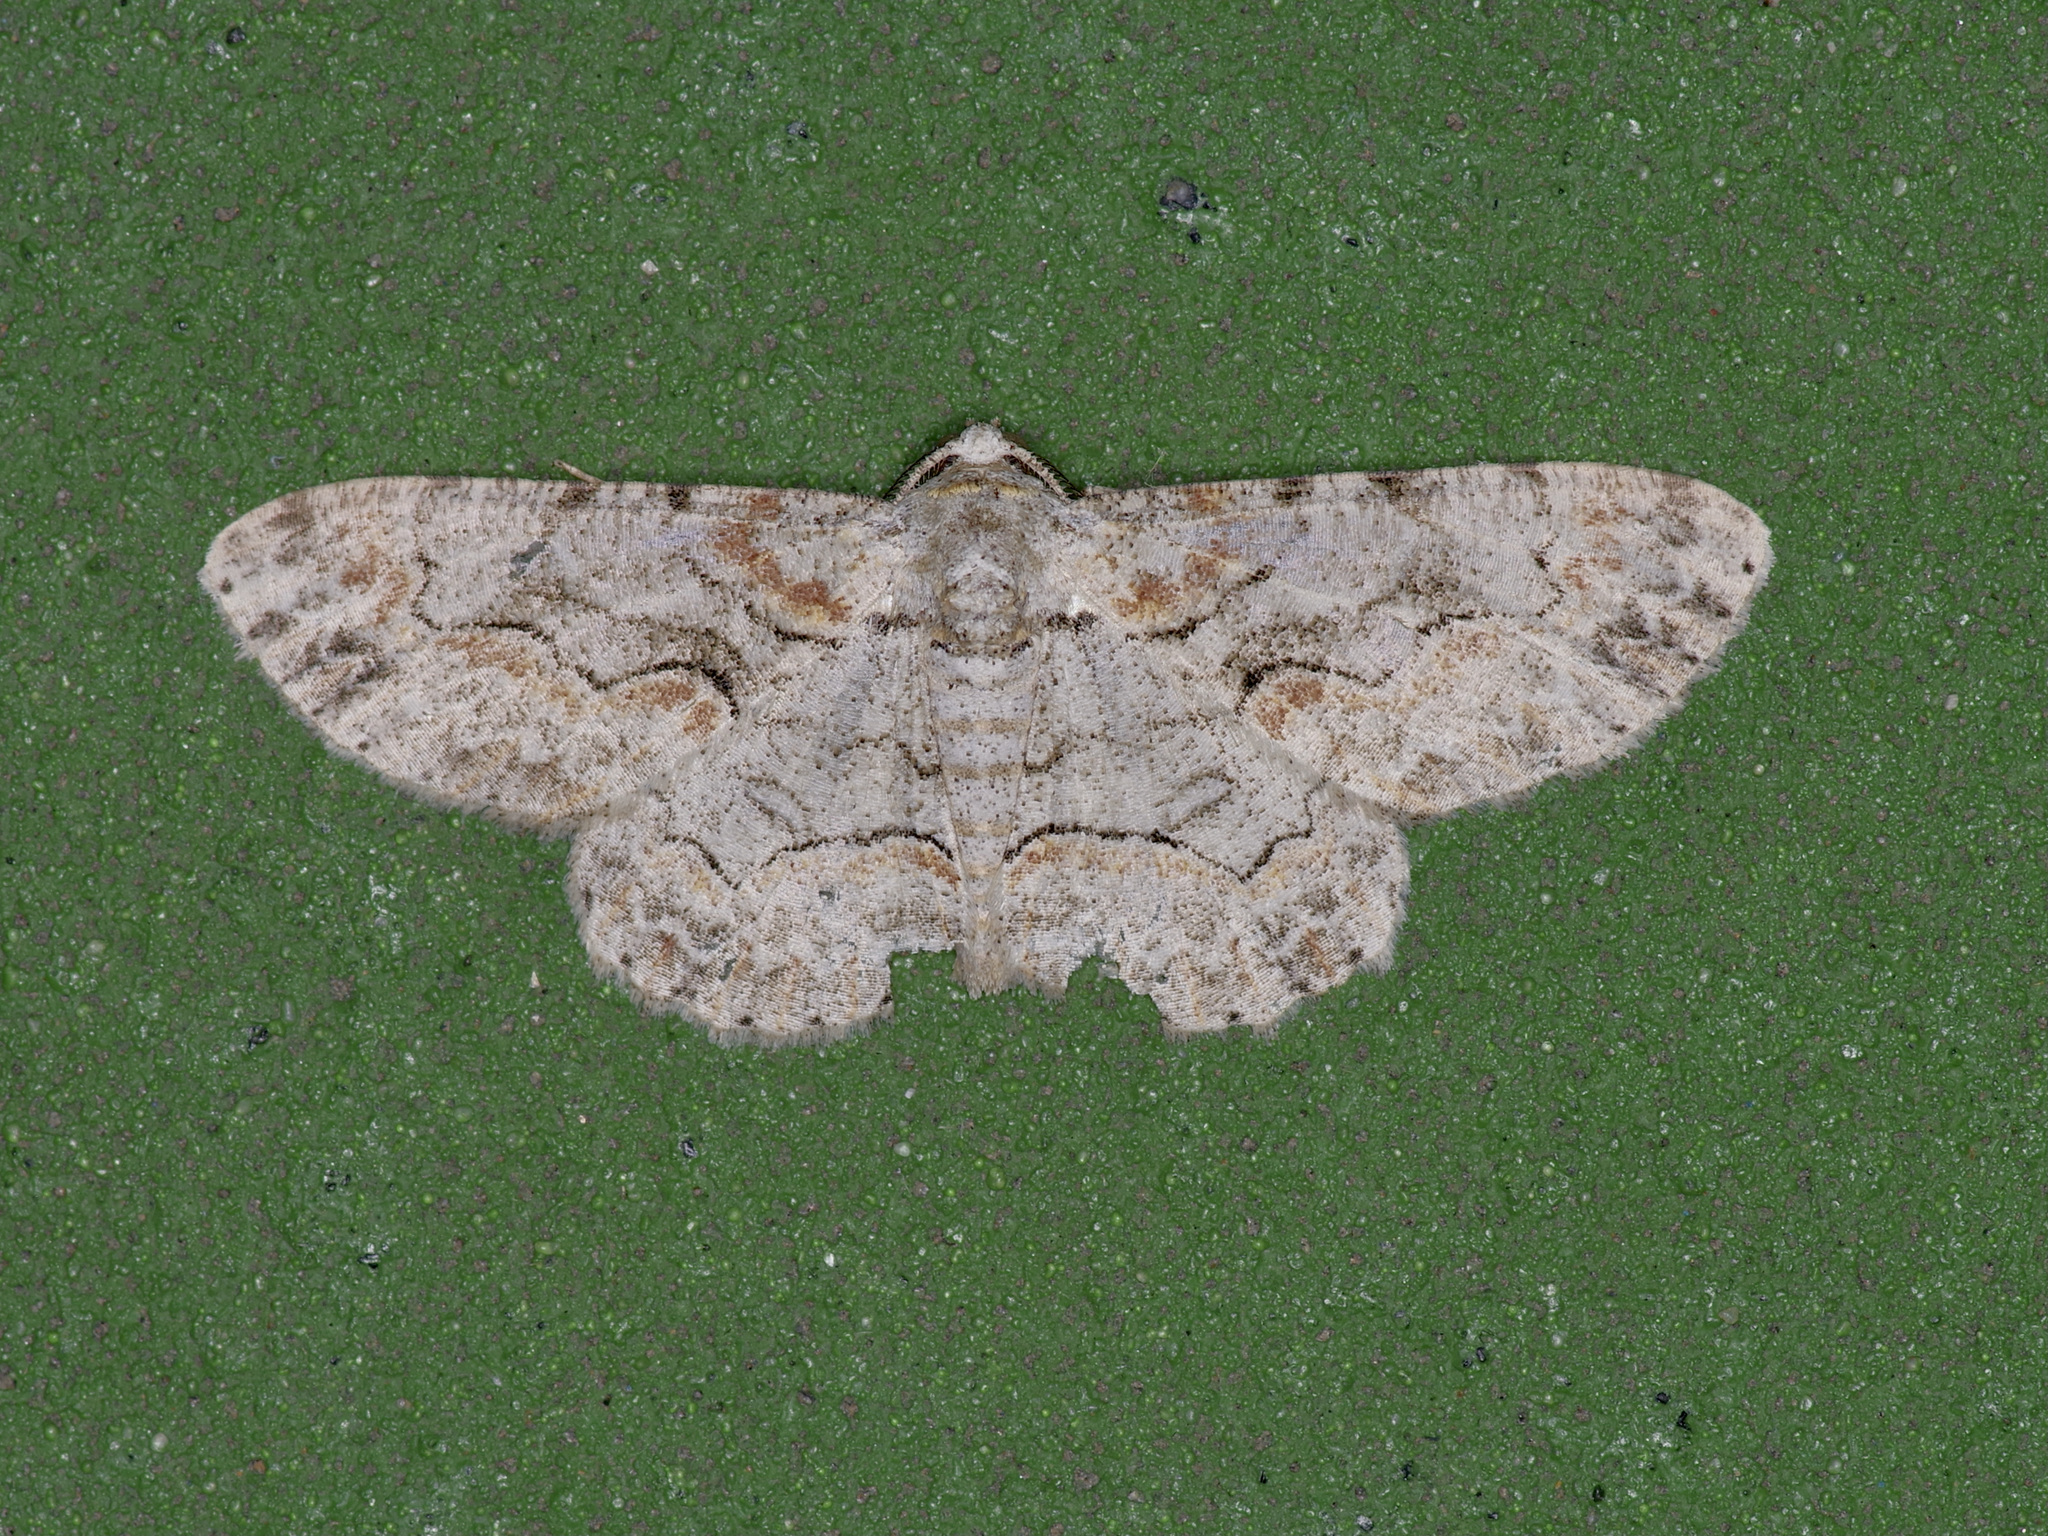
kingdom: Animalia
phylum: Arthropoda
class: Insecta
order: Lepidoptera
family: Geometridae
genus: Iridopsis
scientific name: Iridopsis defectaria
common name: Brown-shaded gray
